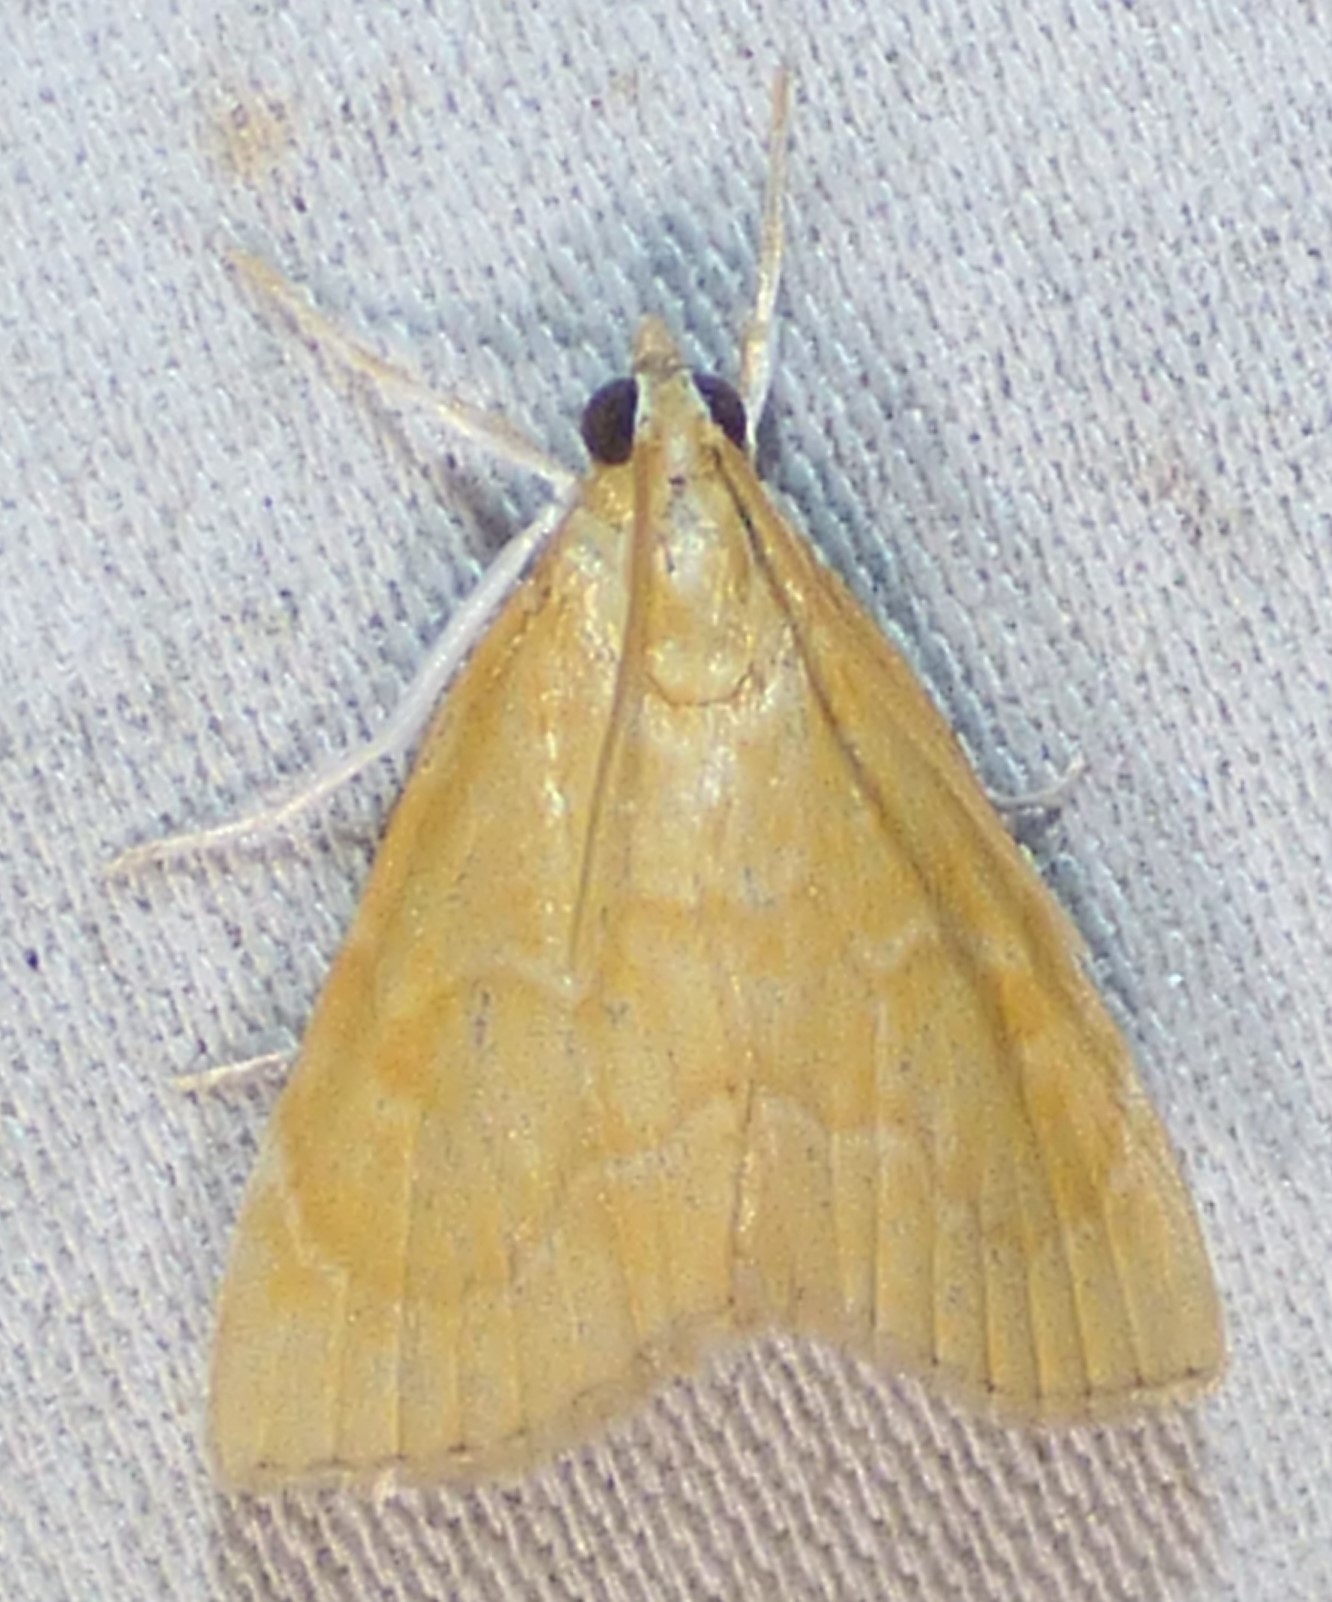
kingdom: Animalia
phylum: Arthropoda
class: Insecta
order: Lepidoptera
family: Crambidae
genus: Glaphyria
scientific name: Glaphyria invisalis
